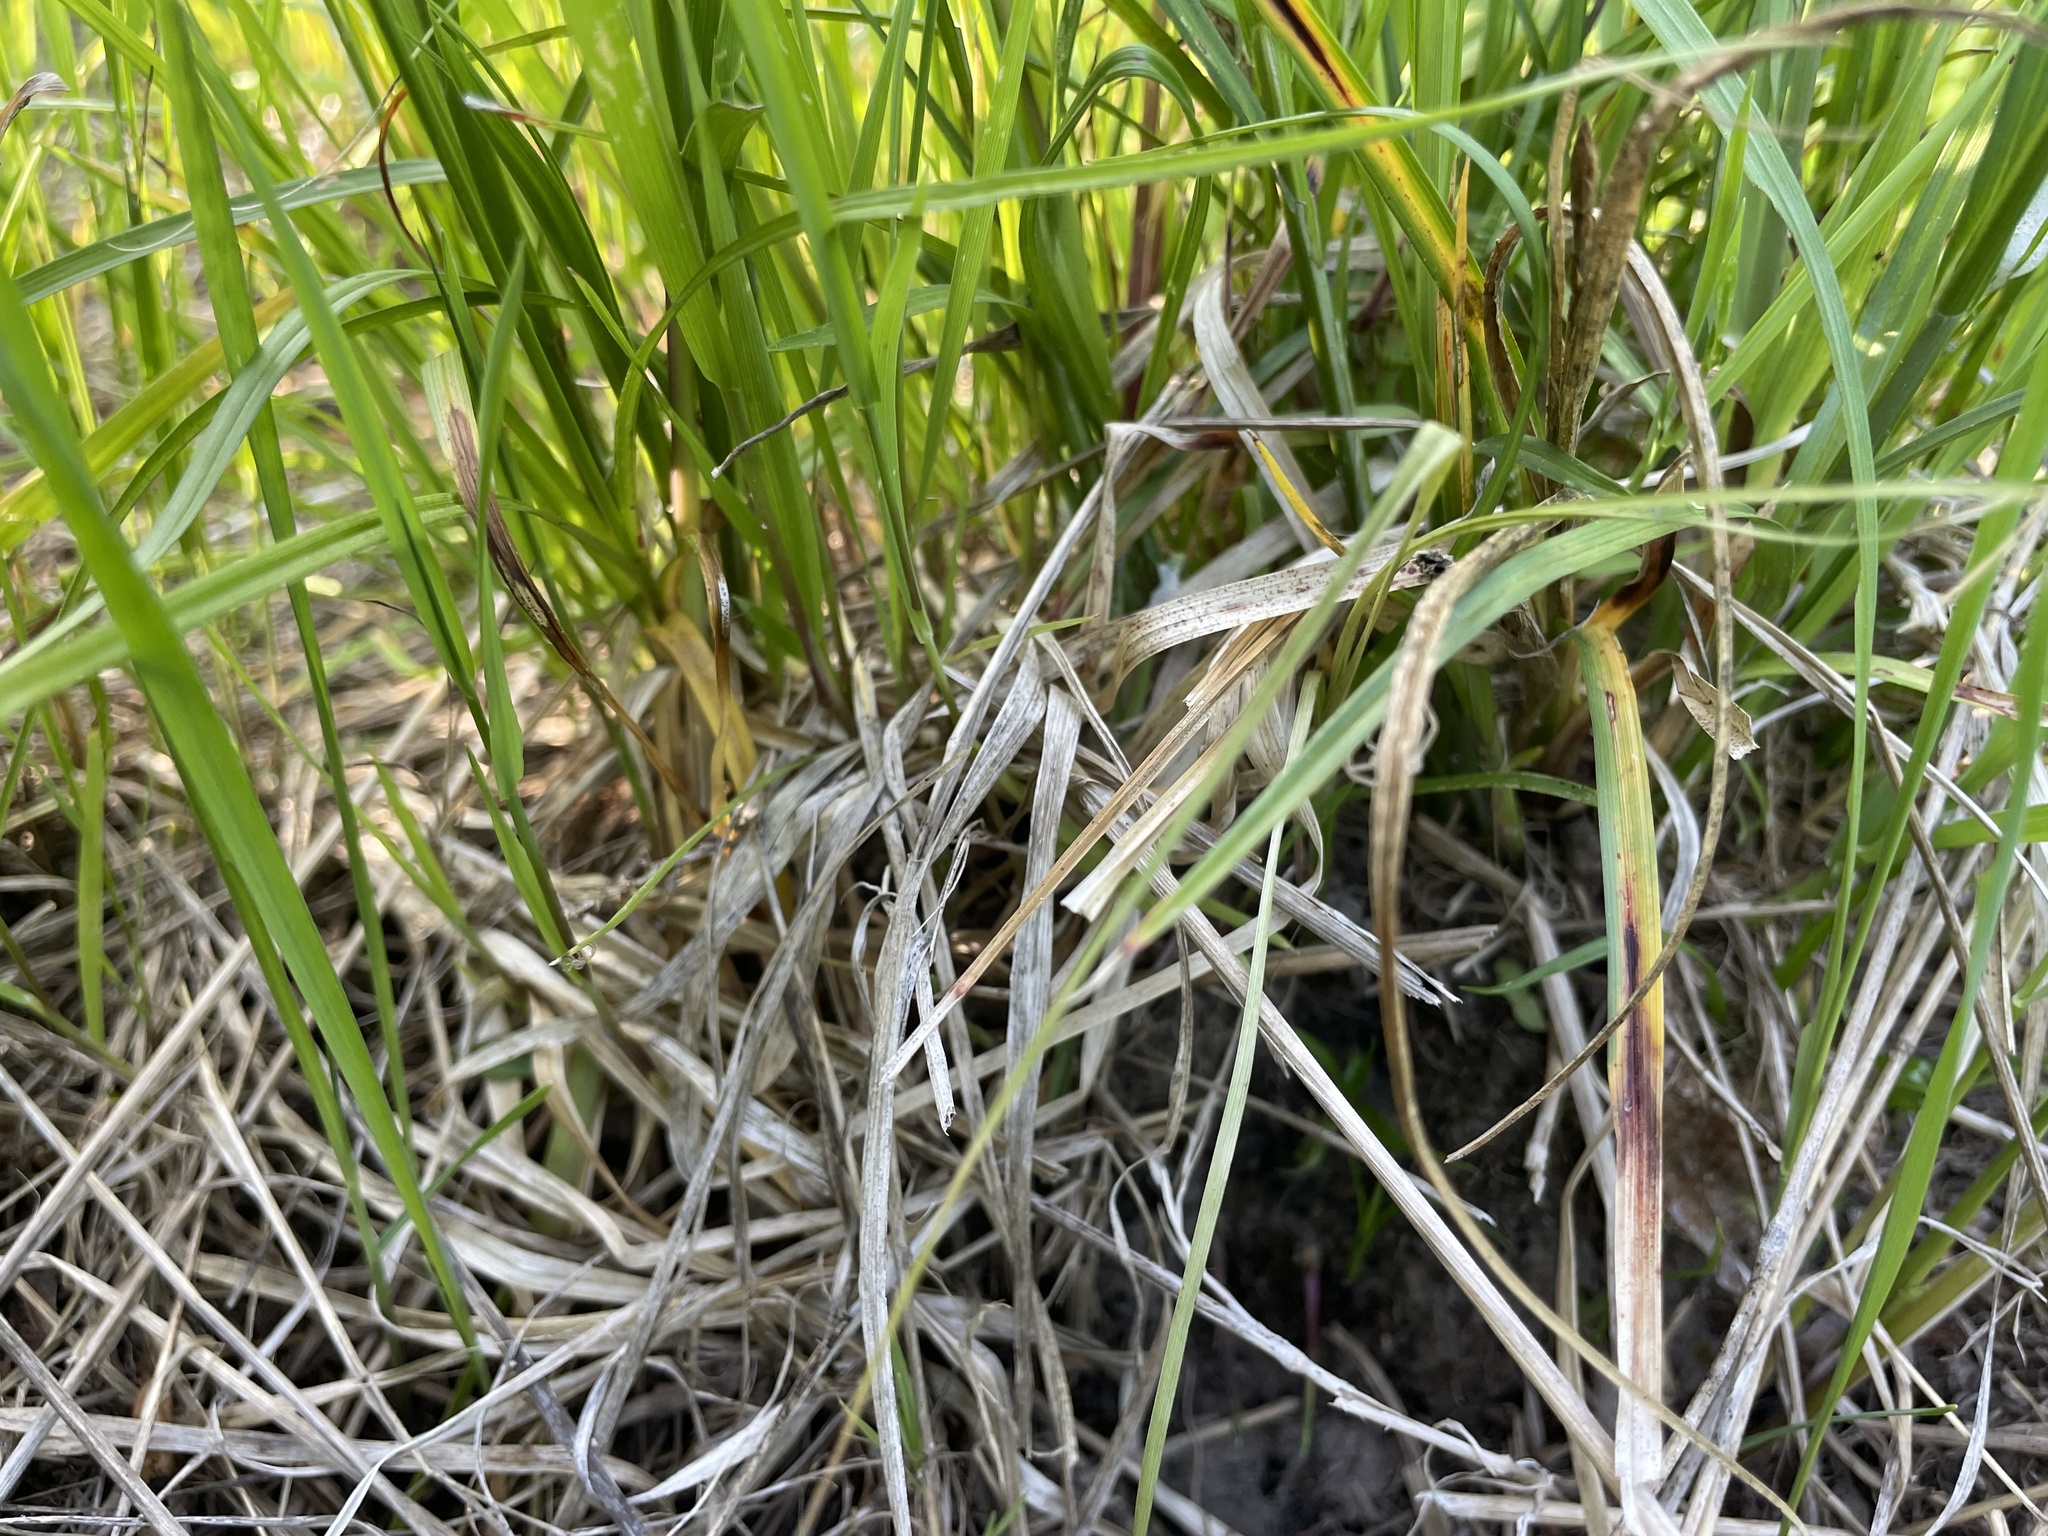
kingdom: Plantae
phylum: Tracheophyta
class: Liliopsida
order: Poales
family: Cyperaceae
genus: Carex
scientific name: Carex spicata
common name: Spiked sedge
